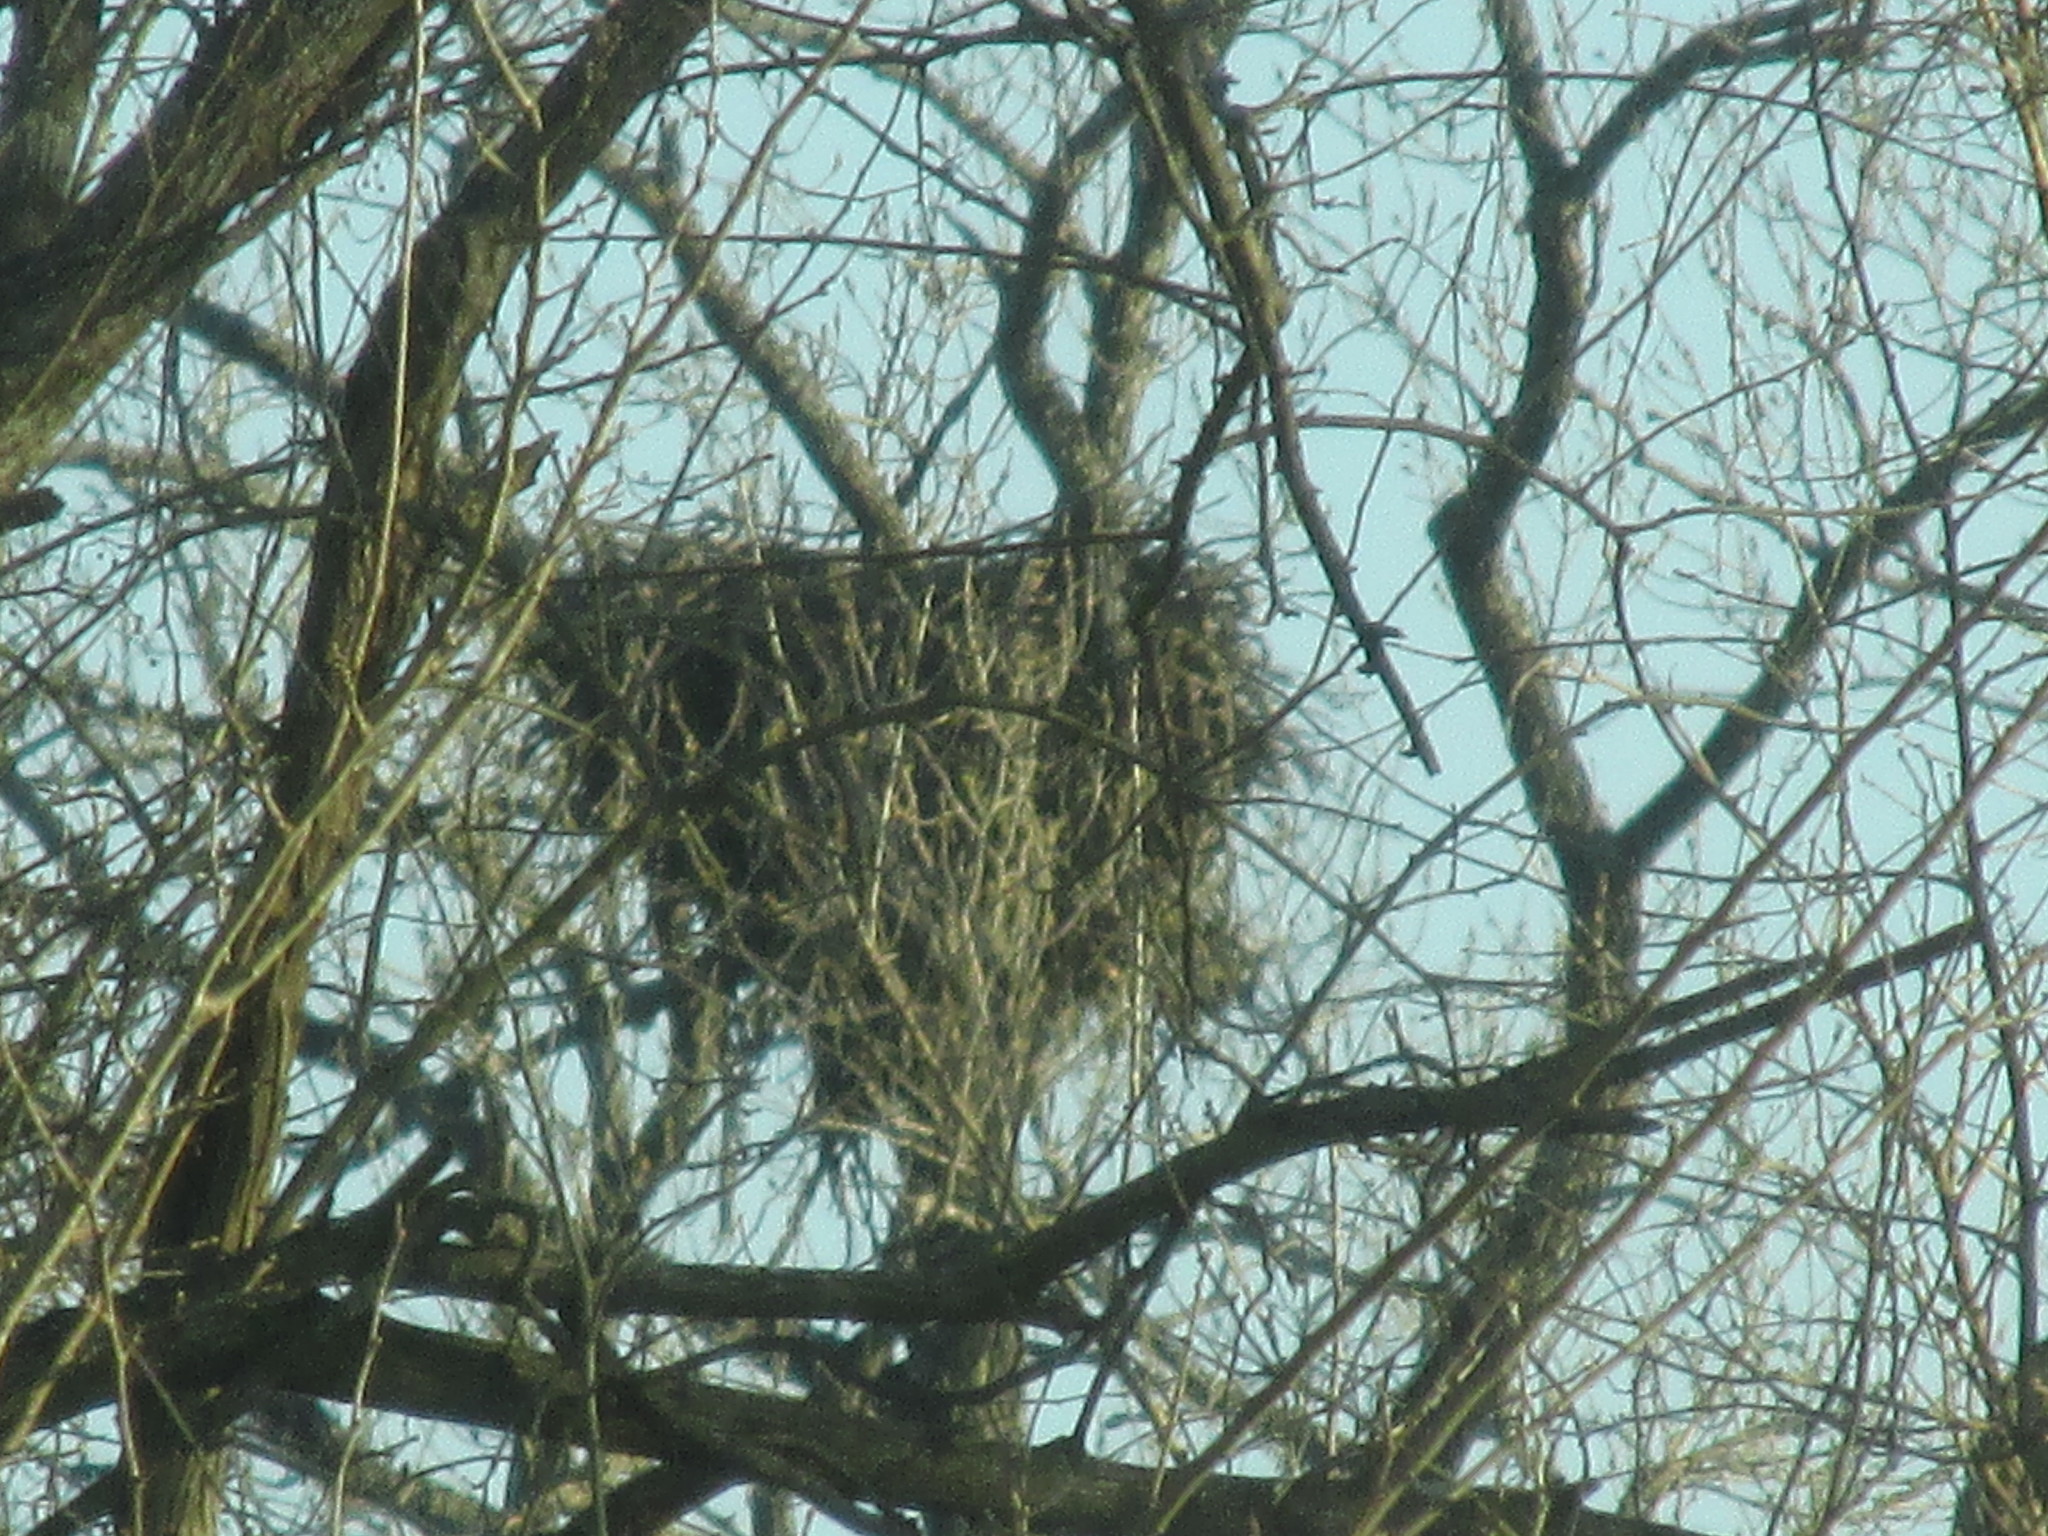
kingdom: Animalia
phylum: Chordata
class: Aves
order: Accipitriformes
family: Accipitridae
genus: Haliaeetus
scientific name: Haliaeetus leucocephalus
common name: Bald eagle
